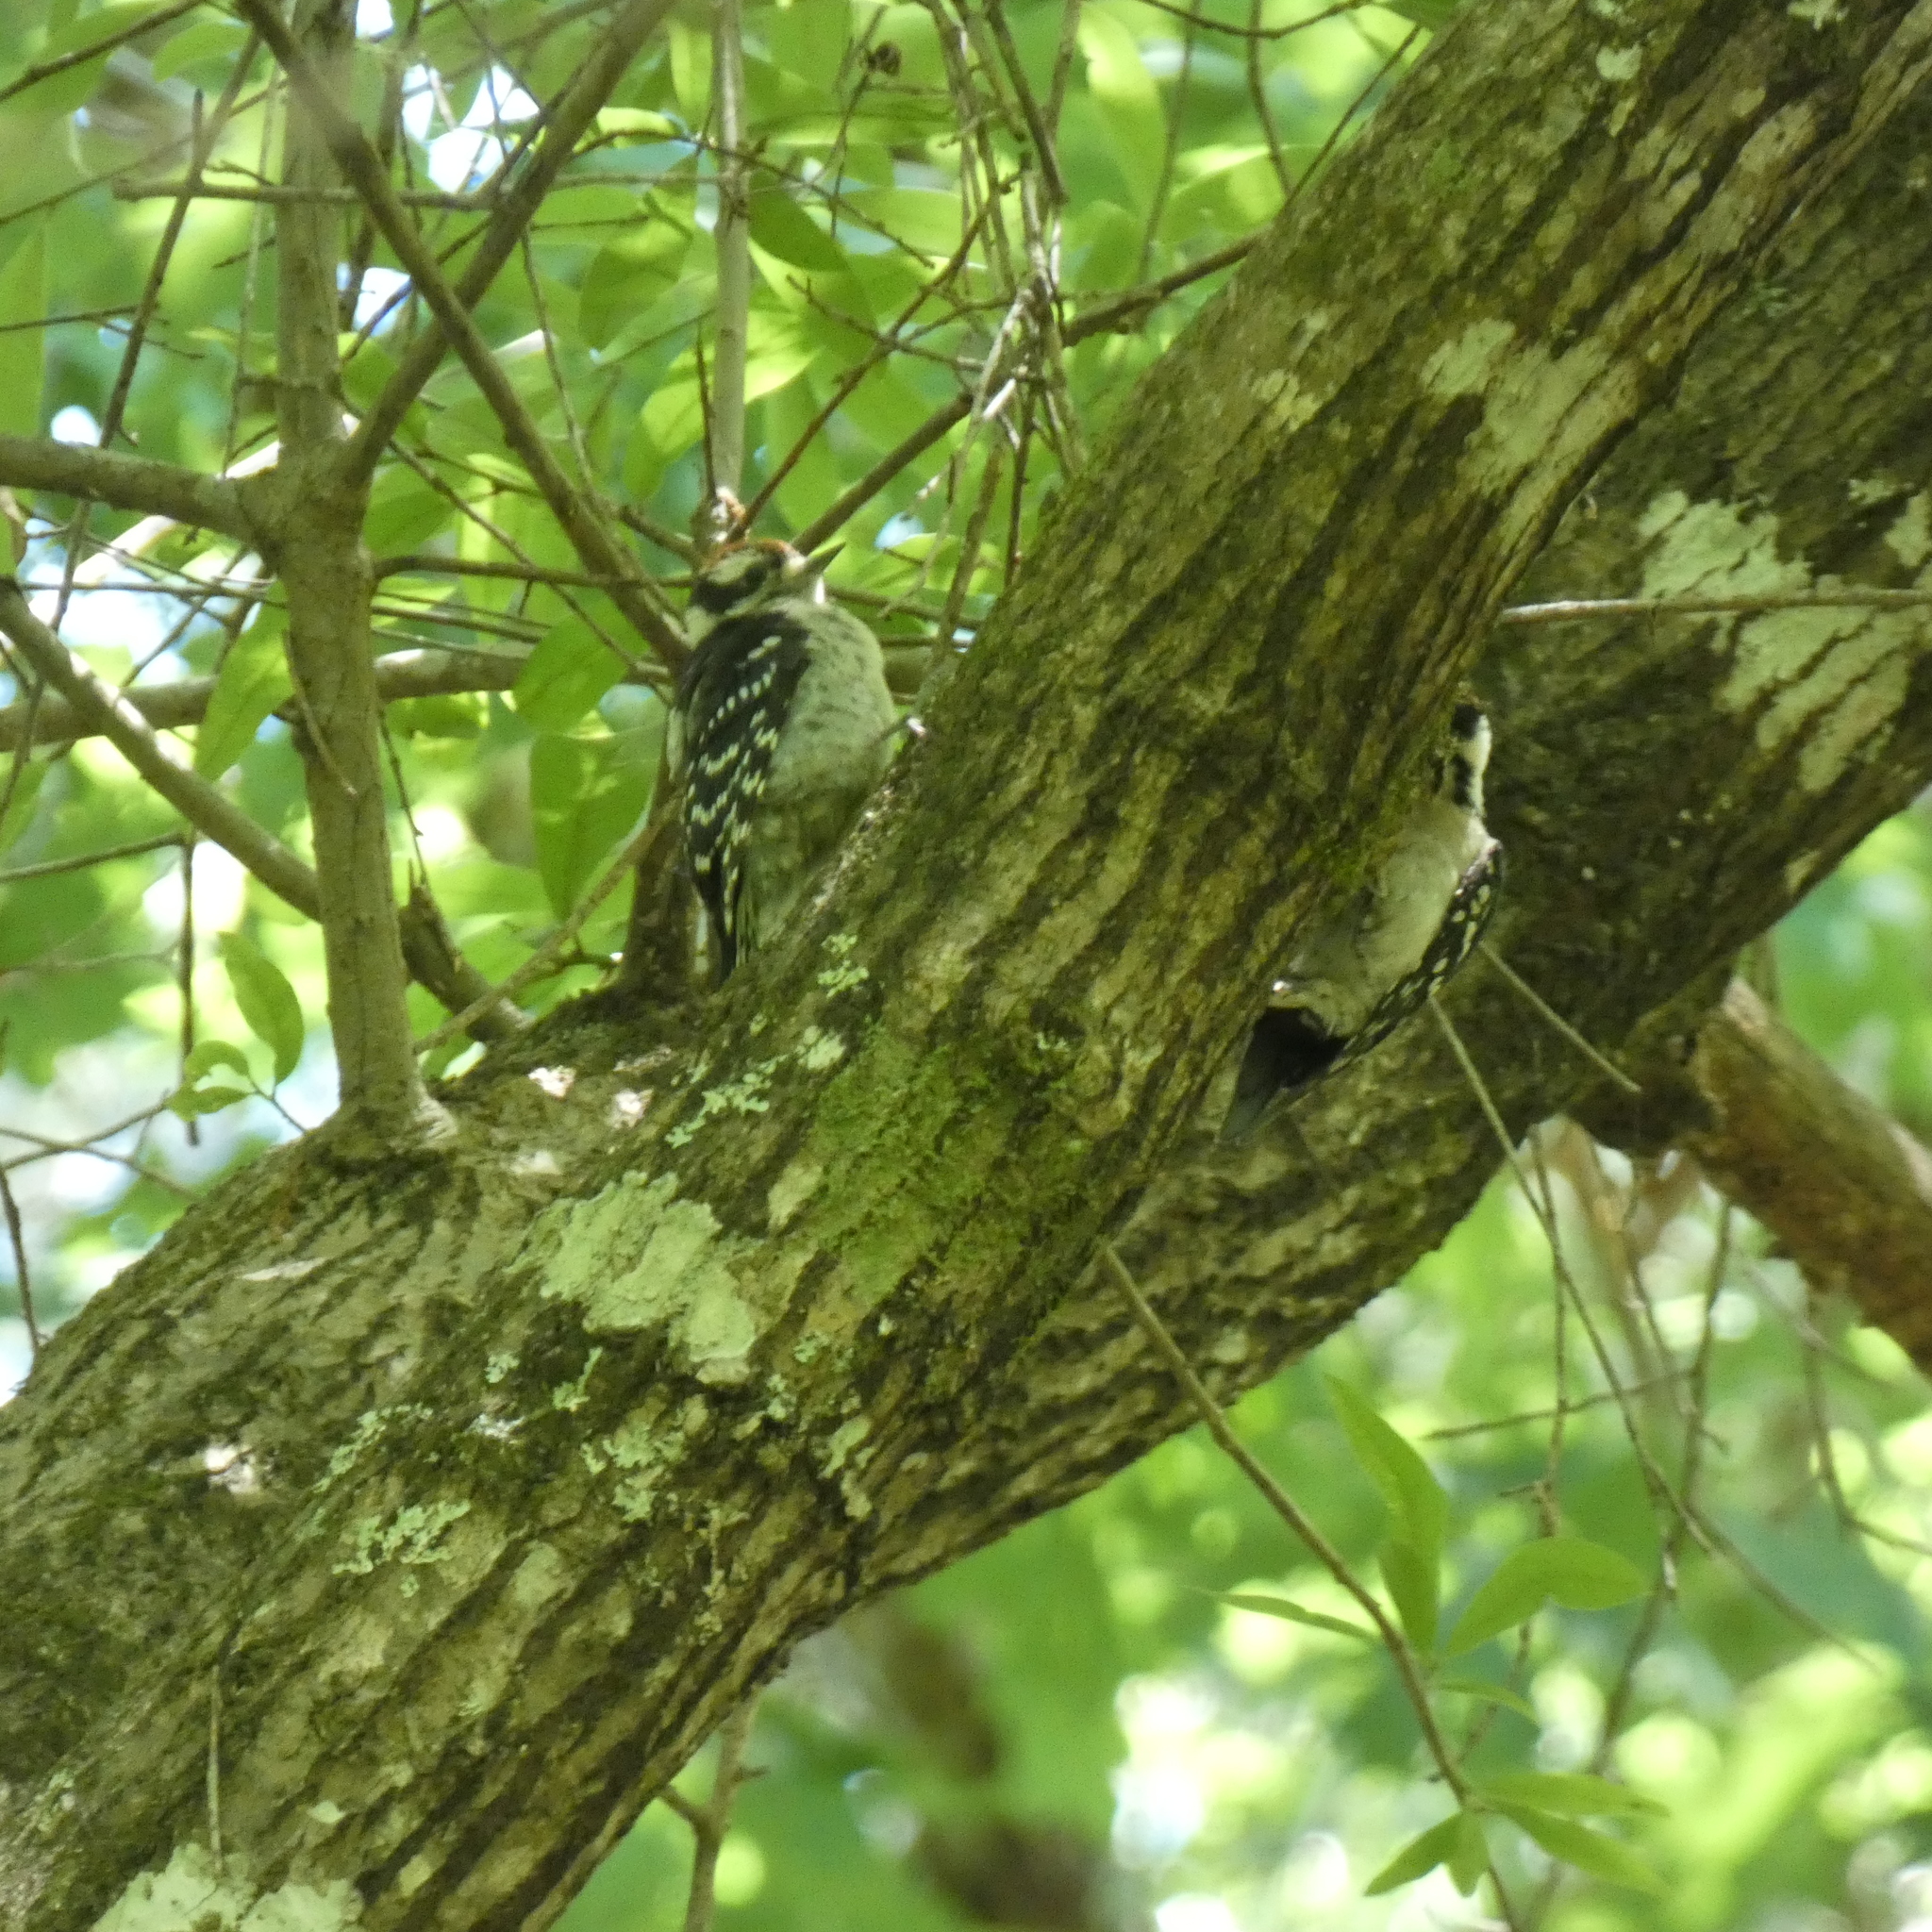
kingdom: Animalia
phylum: Chordata
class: Aves
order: Piciformes
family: Picidae
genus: Dryobates
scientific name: Dryobates pubescens
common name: Downy woodpecker
